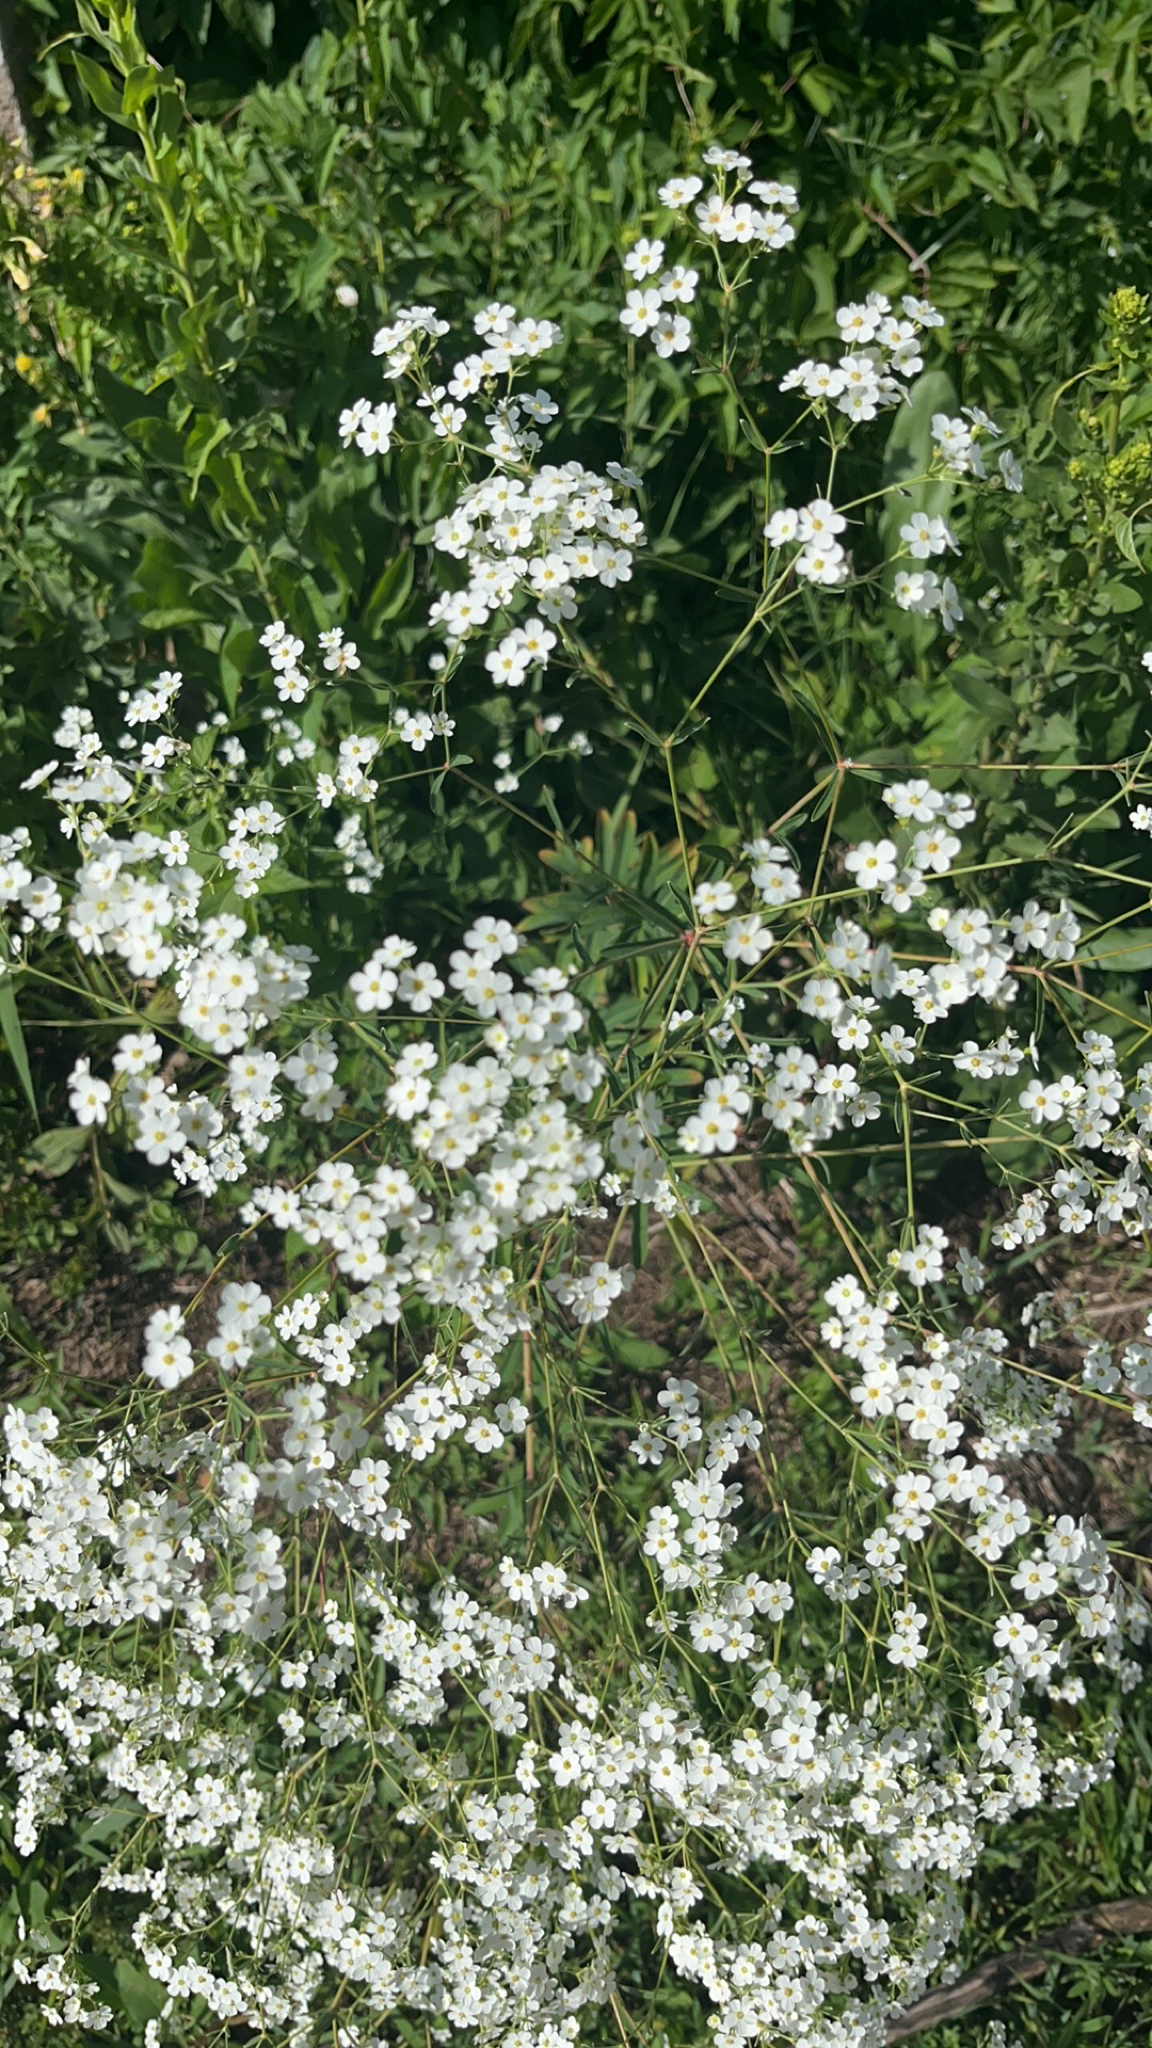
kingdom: Plantae
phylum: Tracheophyta
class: Magnoliopsida
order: Malpighiales
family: Euphorbiaceae
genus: Euphorbia
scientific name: Euphorbia corollata
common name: Flowering spurge
